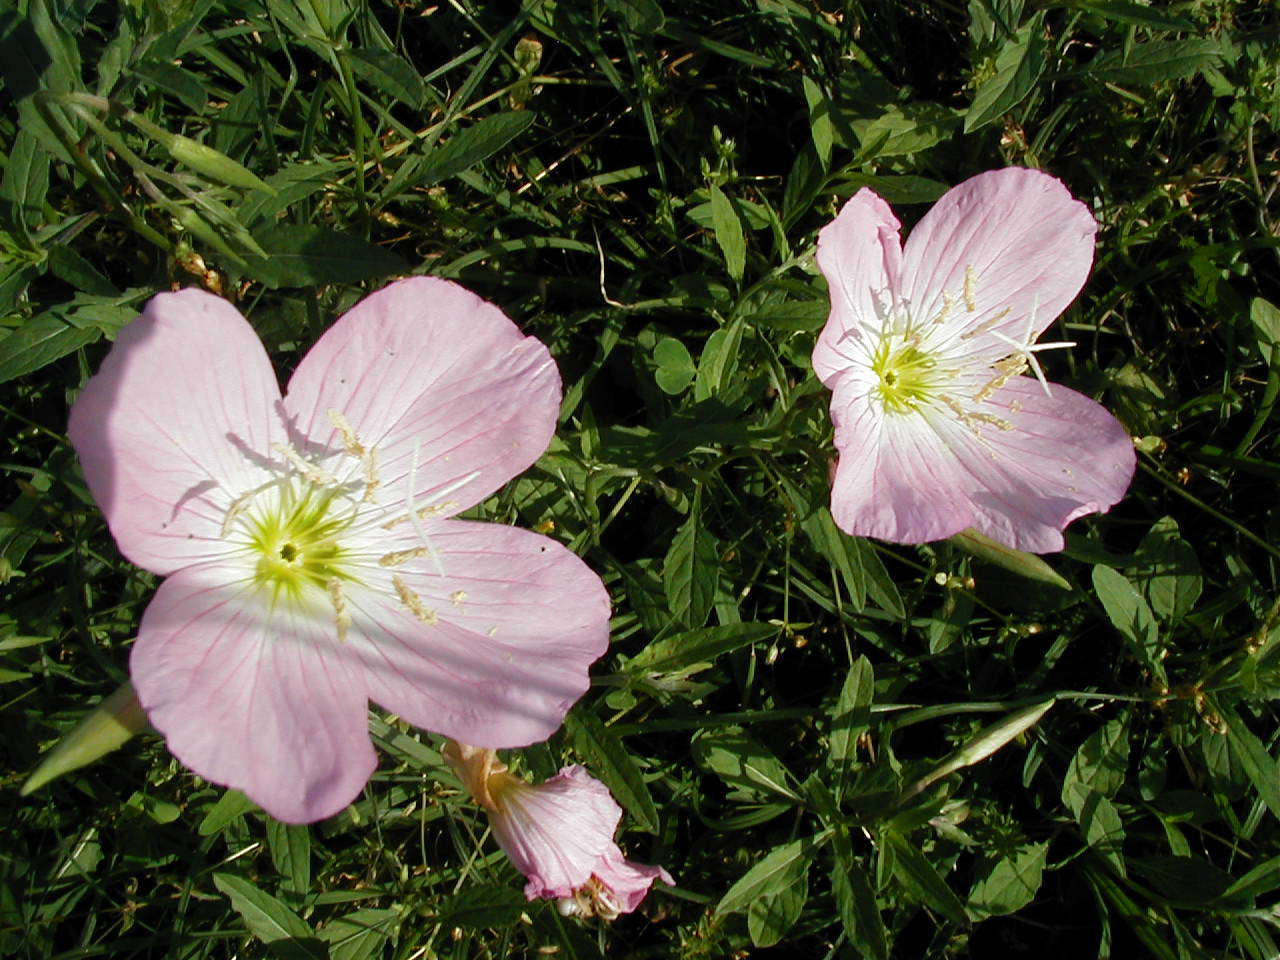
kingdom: Plantae
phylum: Tracheophyta
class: Magnoliopsida
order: Myrtales
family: Onagraceae
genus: Oenothera
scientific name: Oenothera speciosa
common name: White evening-primrose
